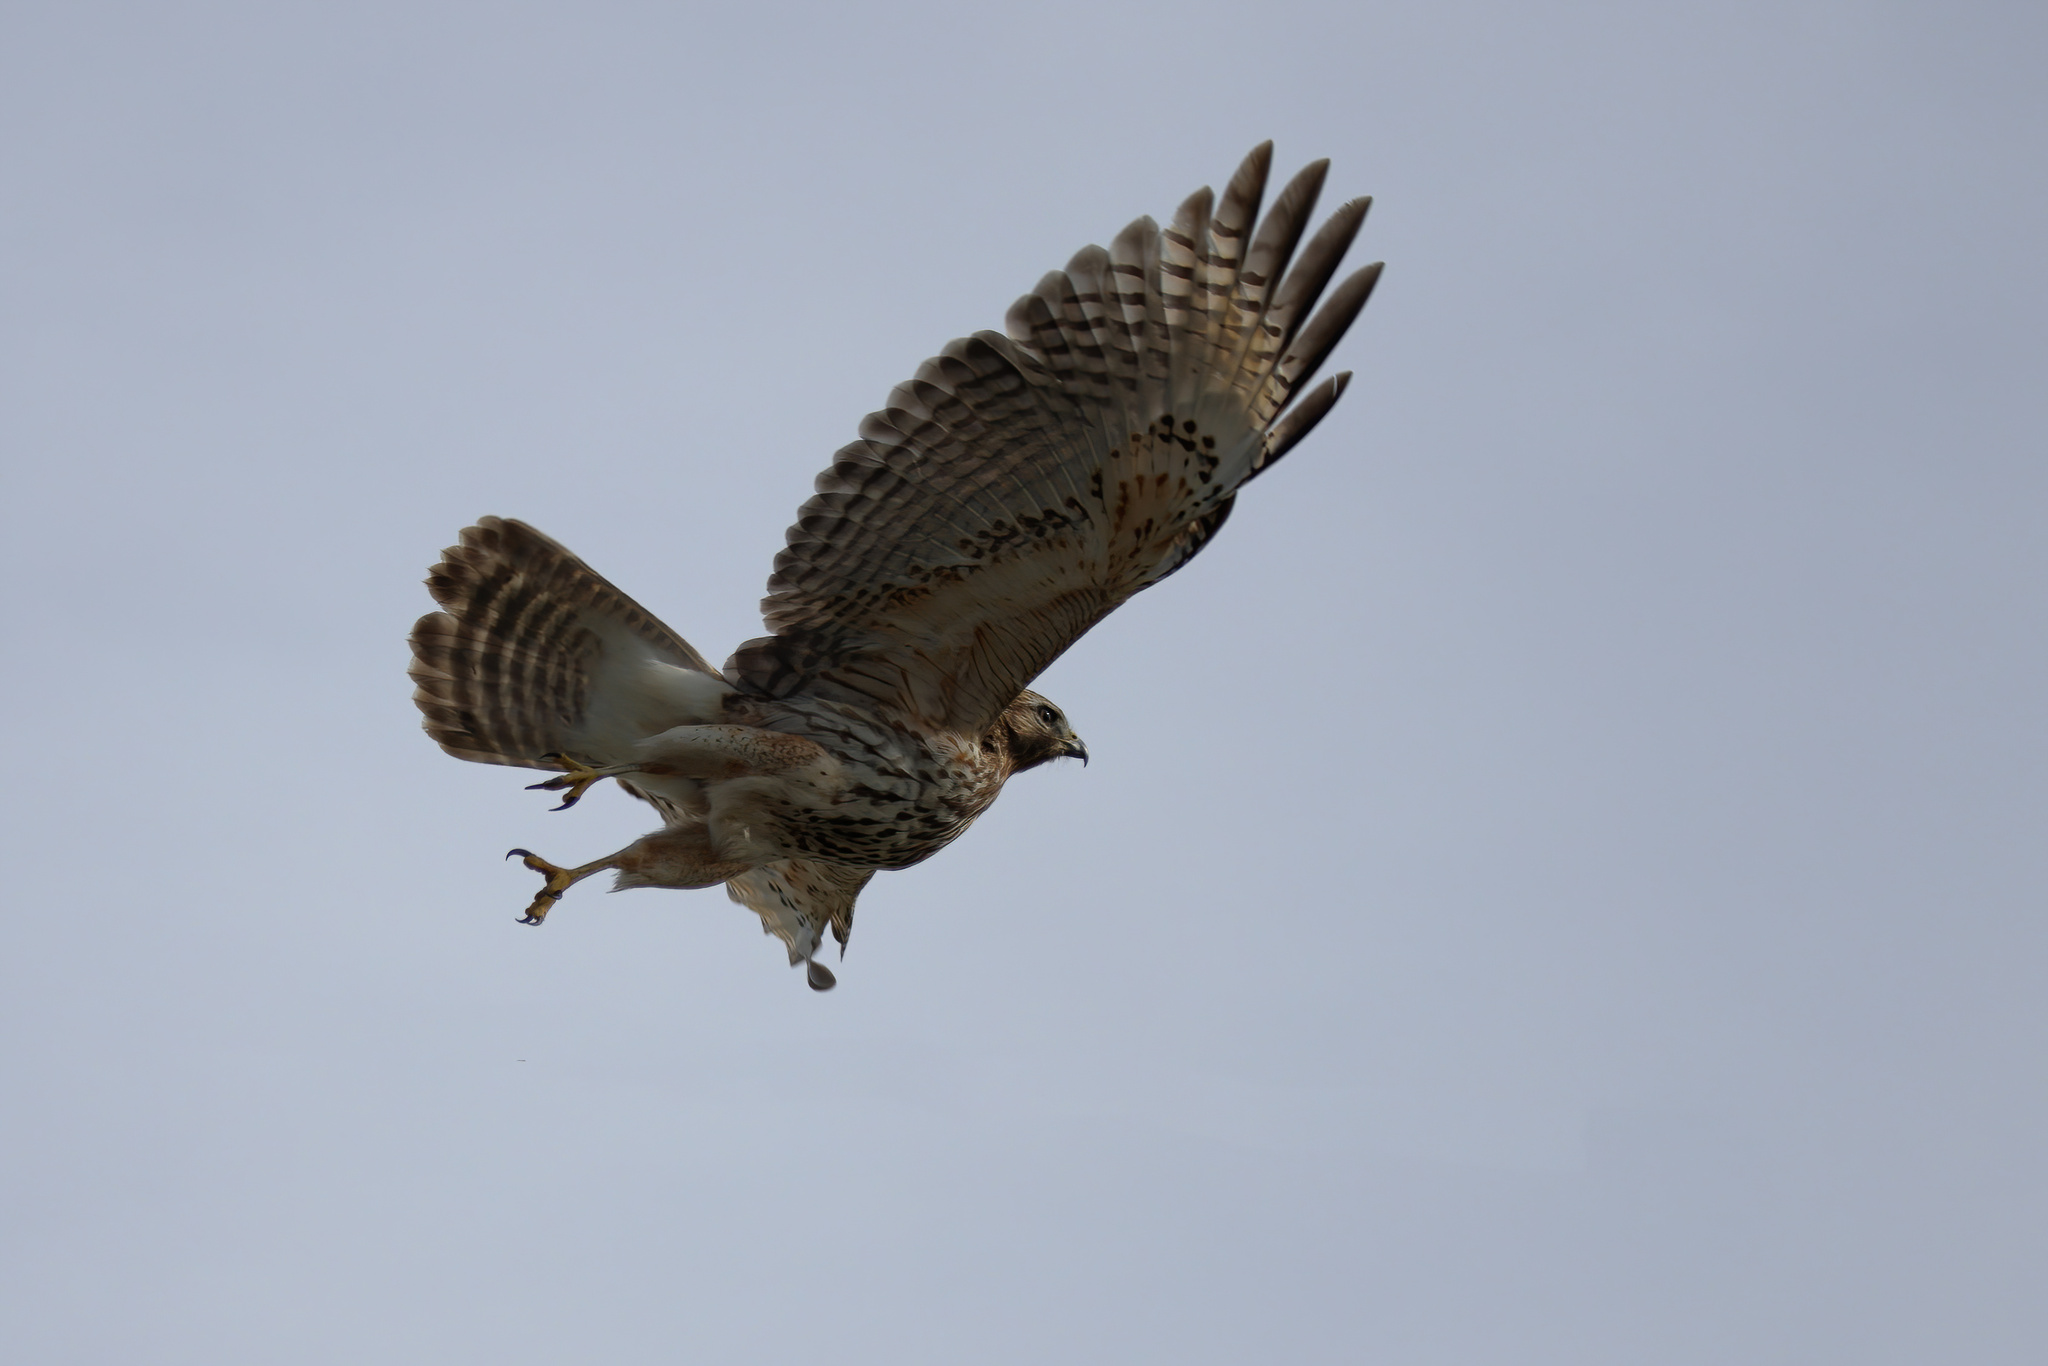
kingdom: Animalia
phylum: Chordata
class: Aves
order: Accipitriformes
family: Accipitridae
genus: Buteo
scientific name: Buteo lineatus
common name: Red-shouldered hawk
